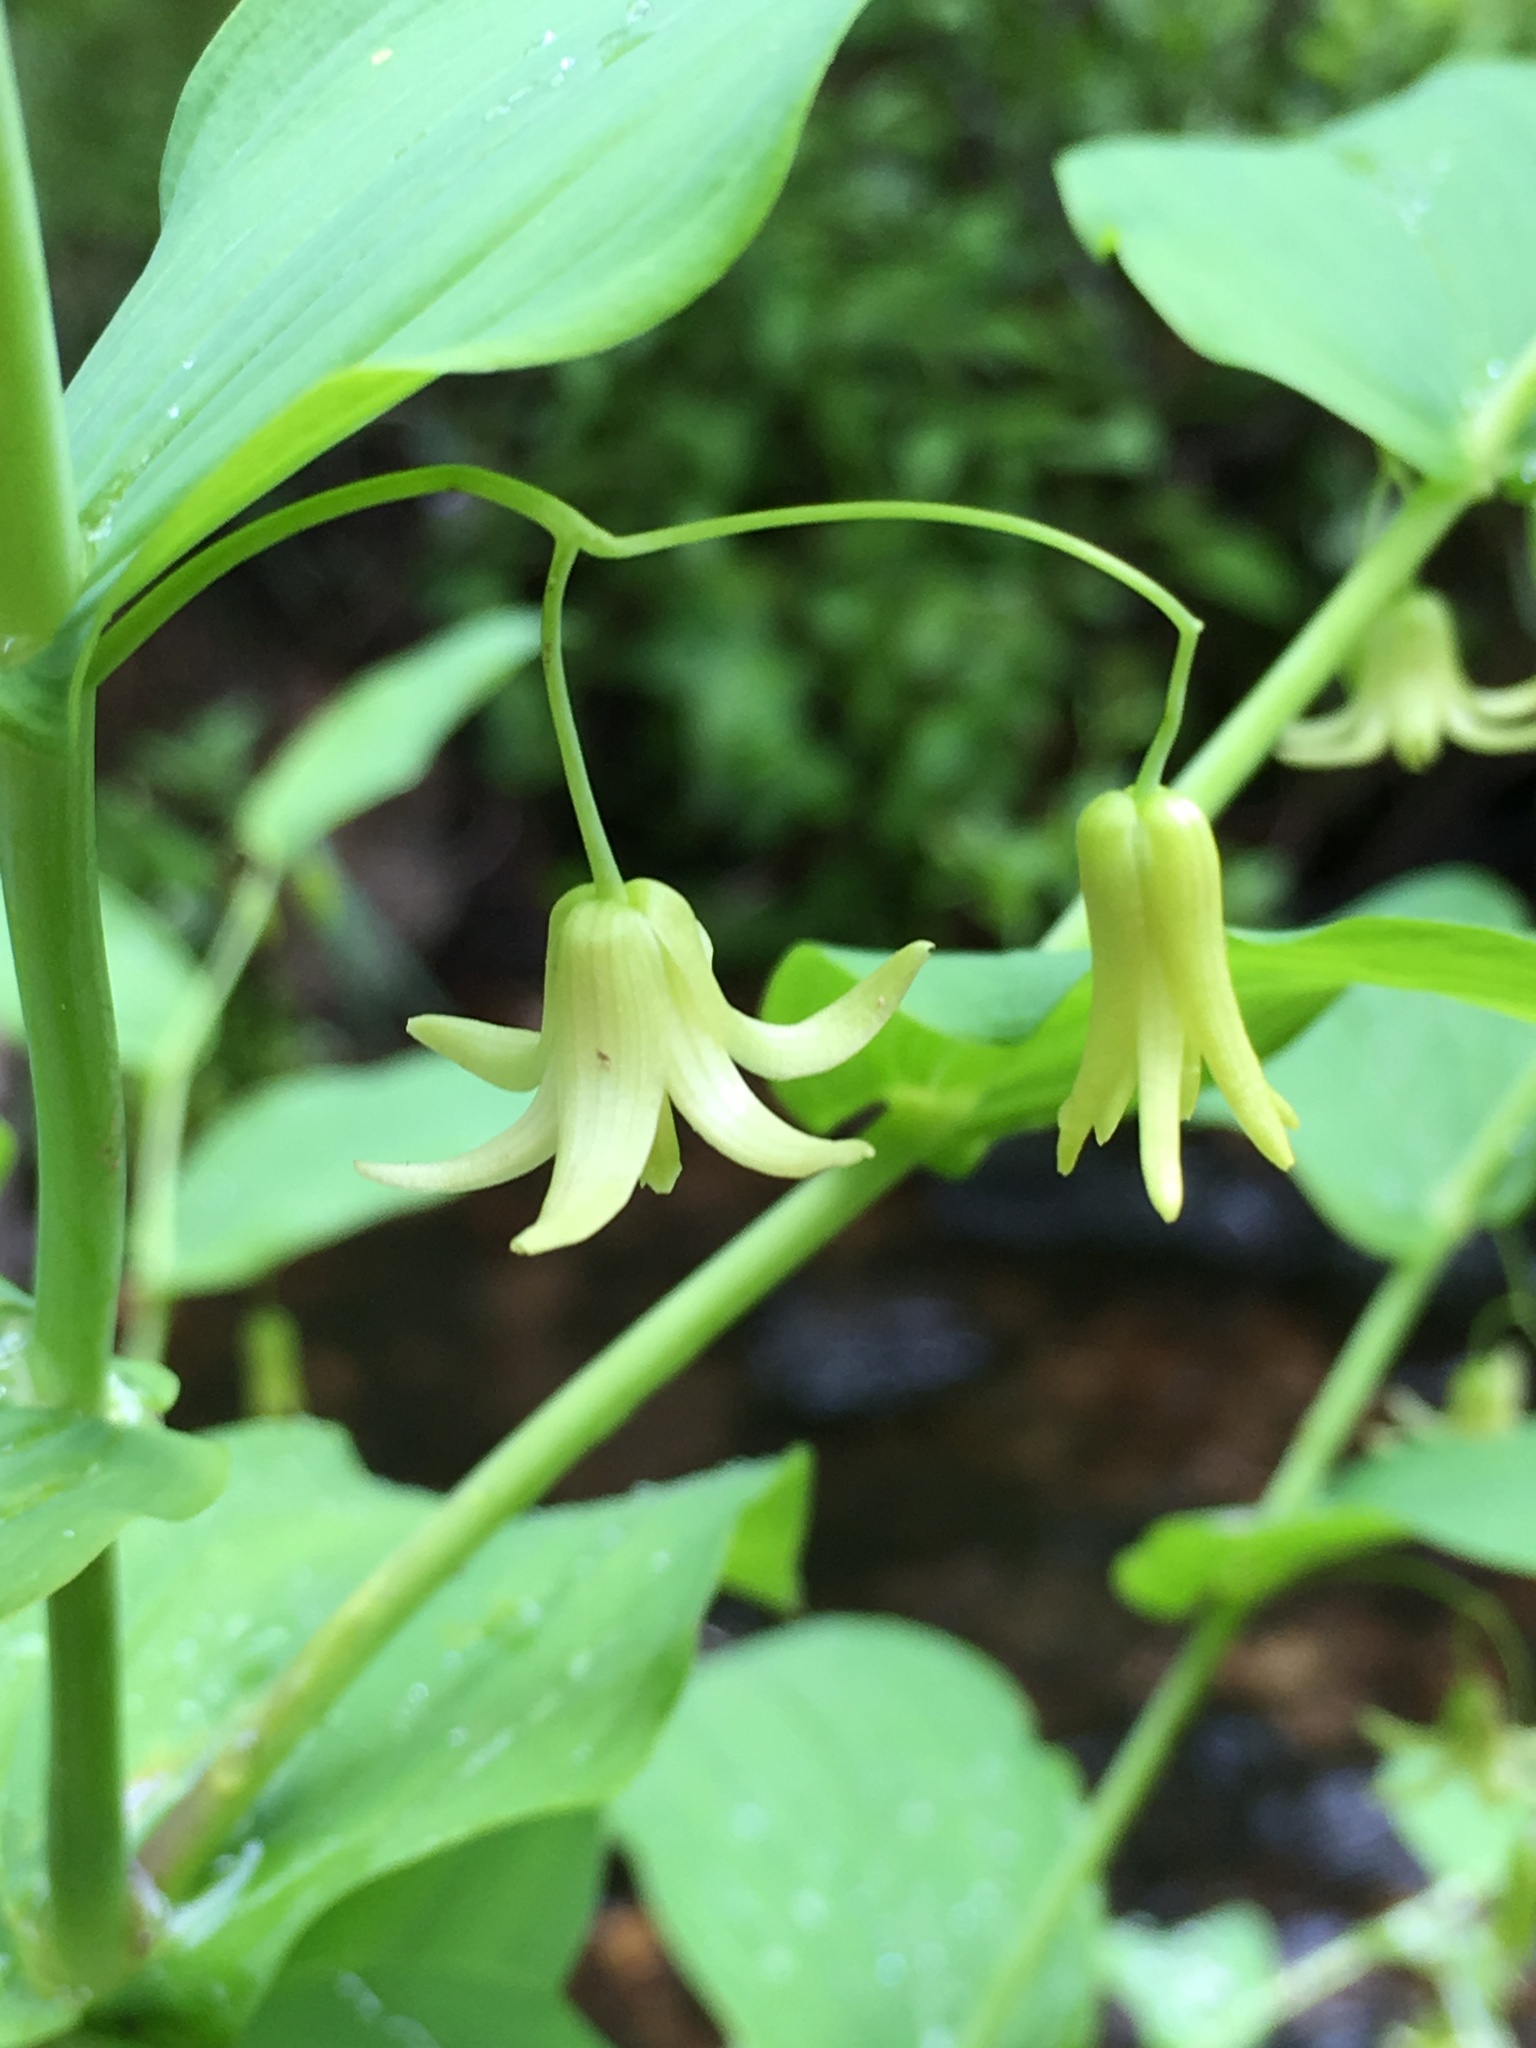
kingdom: Plantae
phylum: Tracheophyta
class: Liliopsida
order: Liliales
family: Liliaceae
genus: Streptopus
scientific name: Streptopus amplexifolius
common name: Clasp twisted stalk
